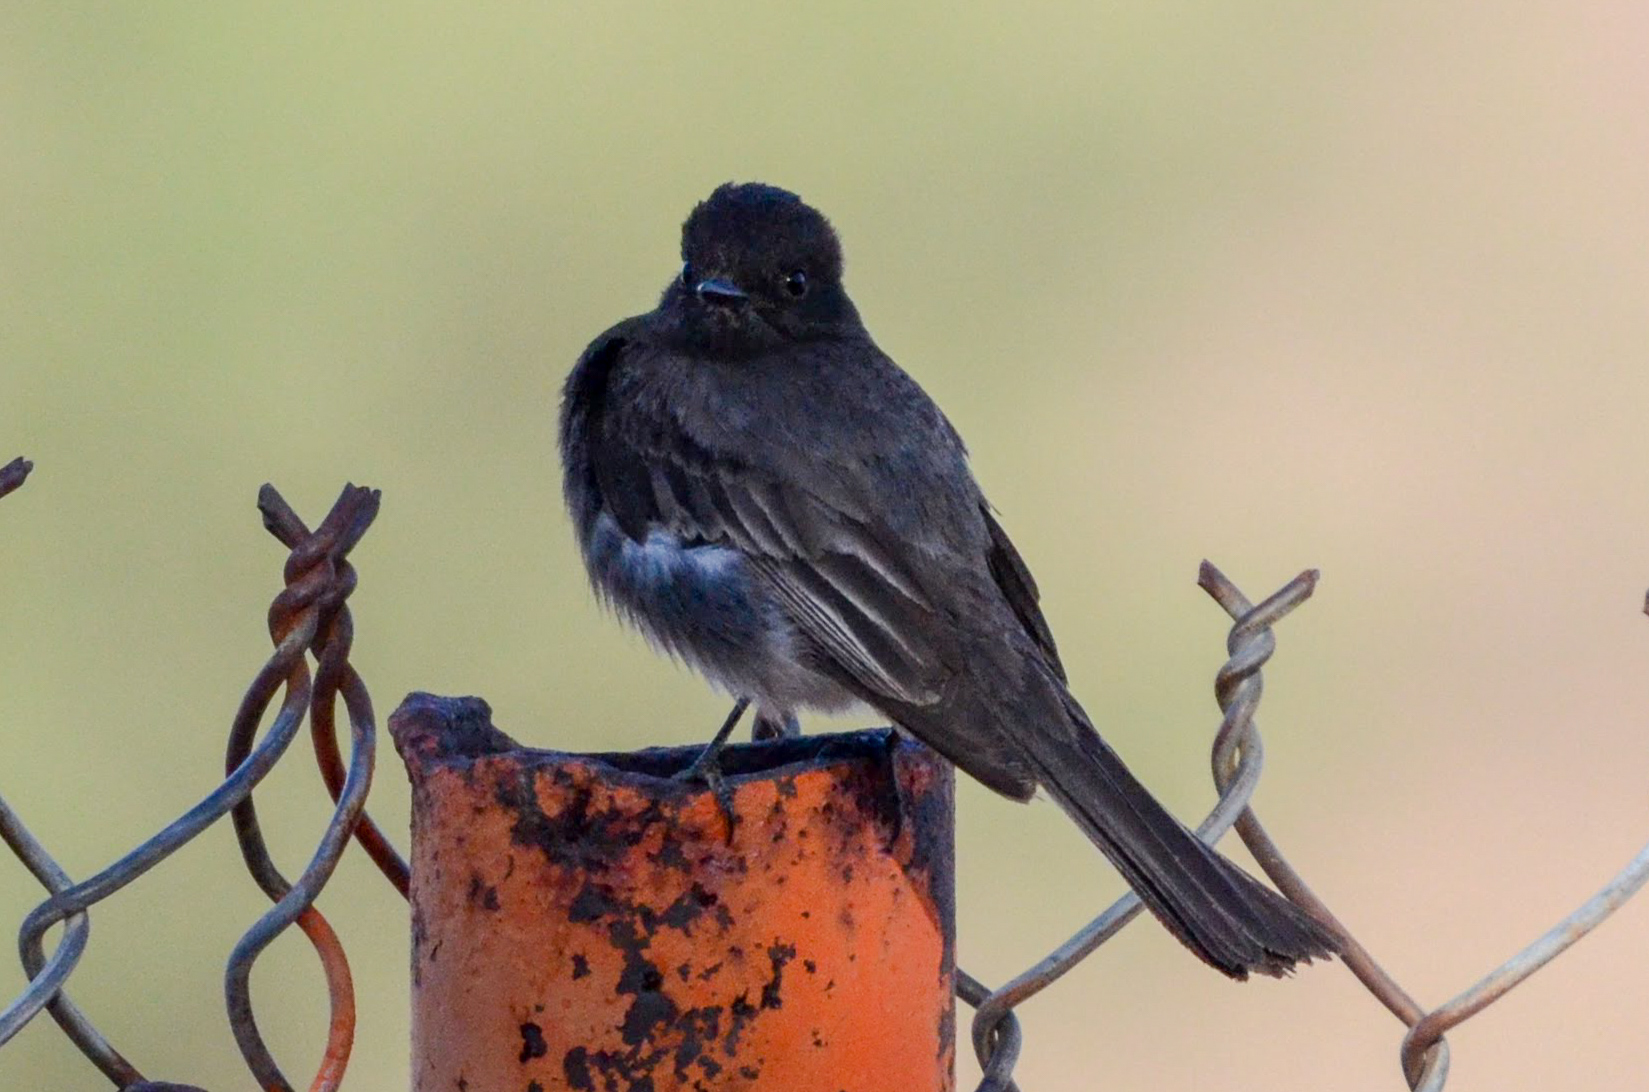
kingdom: Animalia
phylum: Chordata
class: Aves
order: Passeriformes
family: Tyrannidae
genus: Sayornis
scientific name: Sayornis nigricans
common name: Black phoebe
